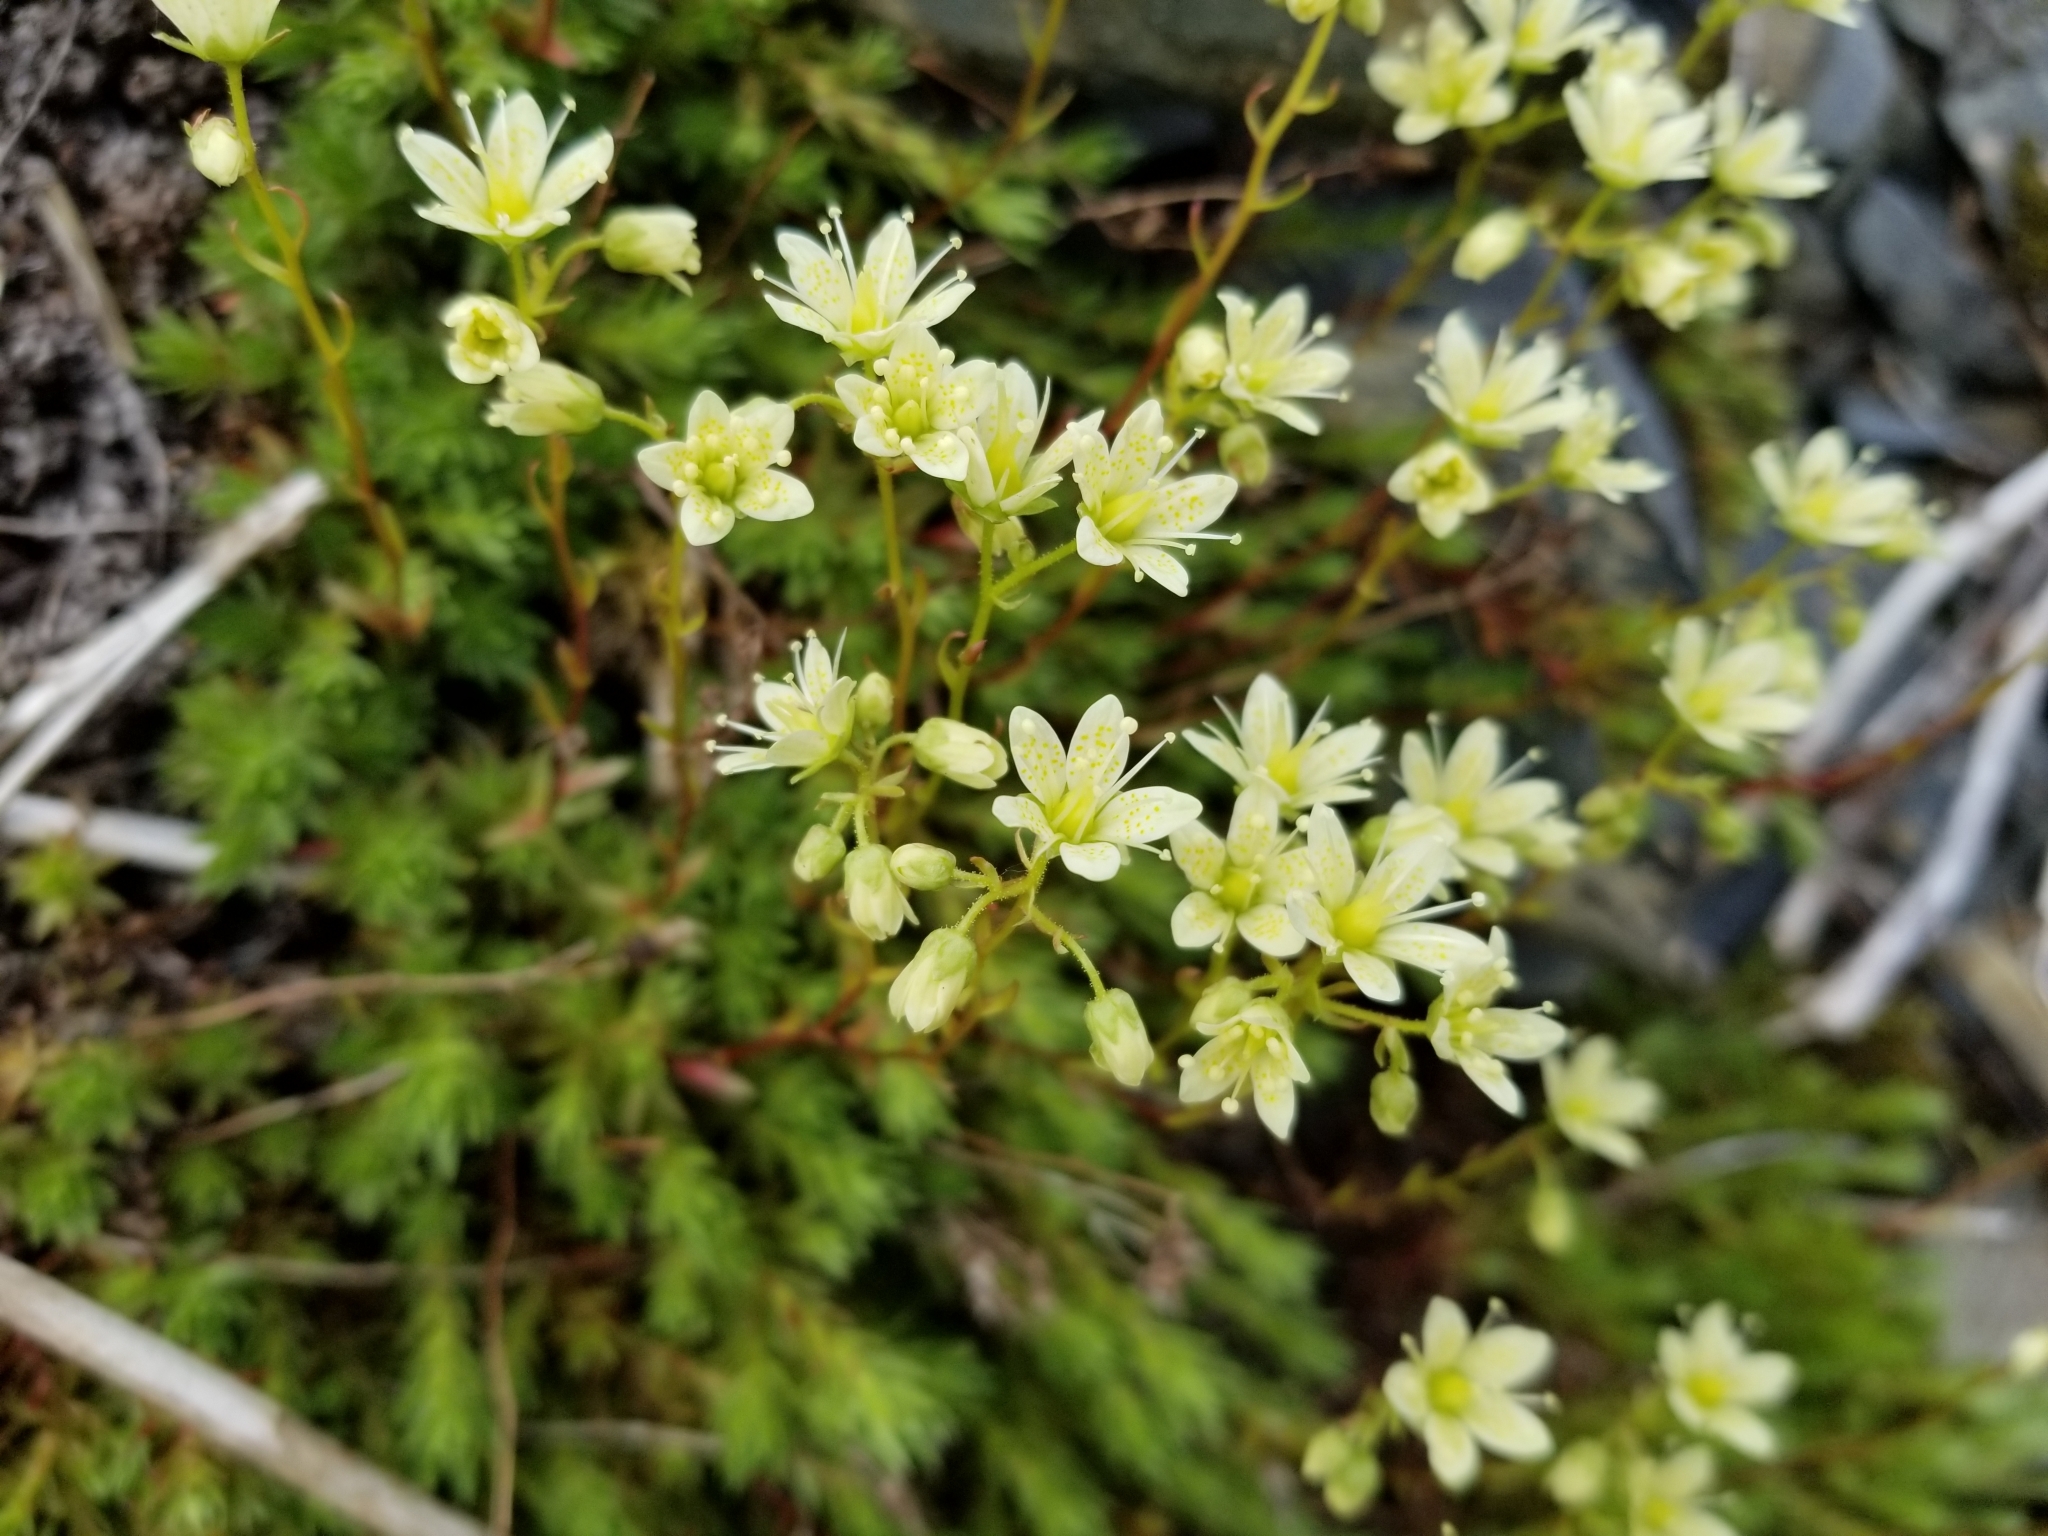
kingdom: Plantae
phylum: Tracheophyta
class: Magnoliopsida
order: Saxifragales
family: Saxifragaceae
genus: Saxifraga
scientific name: Saxifraga bronchialis
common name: Matted saxifrage
